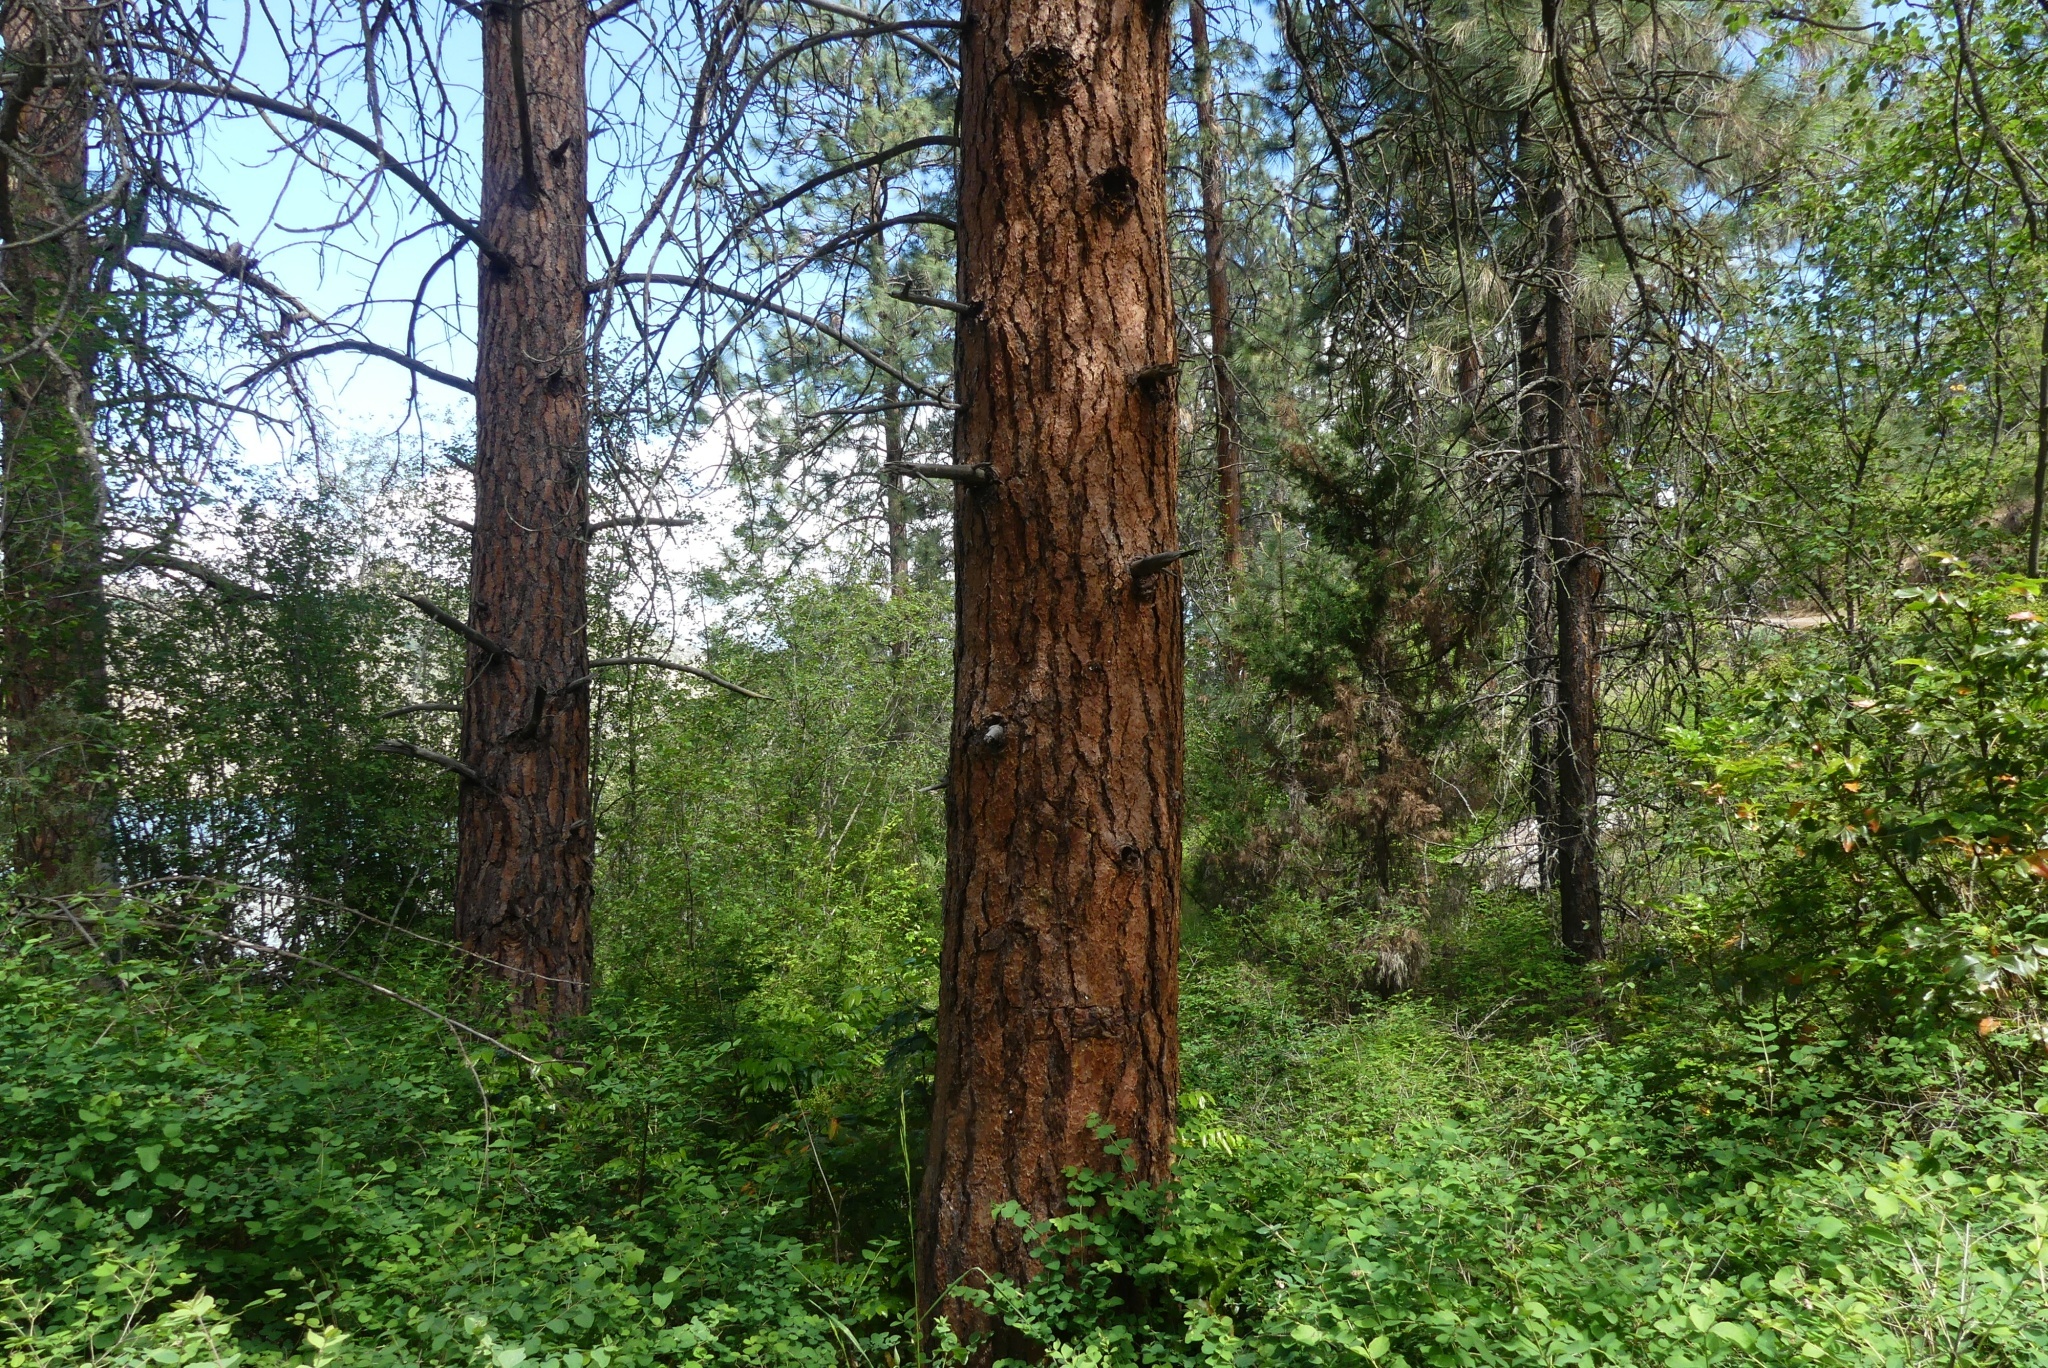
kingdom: Plantae
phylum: Tracheophyta
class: Pinopsida
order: Pinales
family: Pinaceae
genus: Pinus
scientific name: Pinus ponderosa
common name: Western yellow-pine
